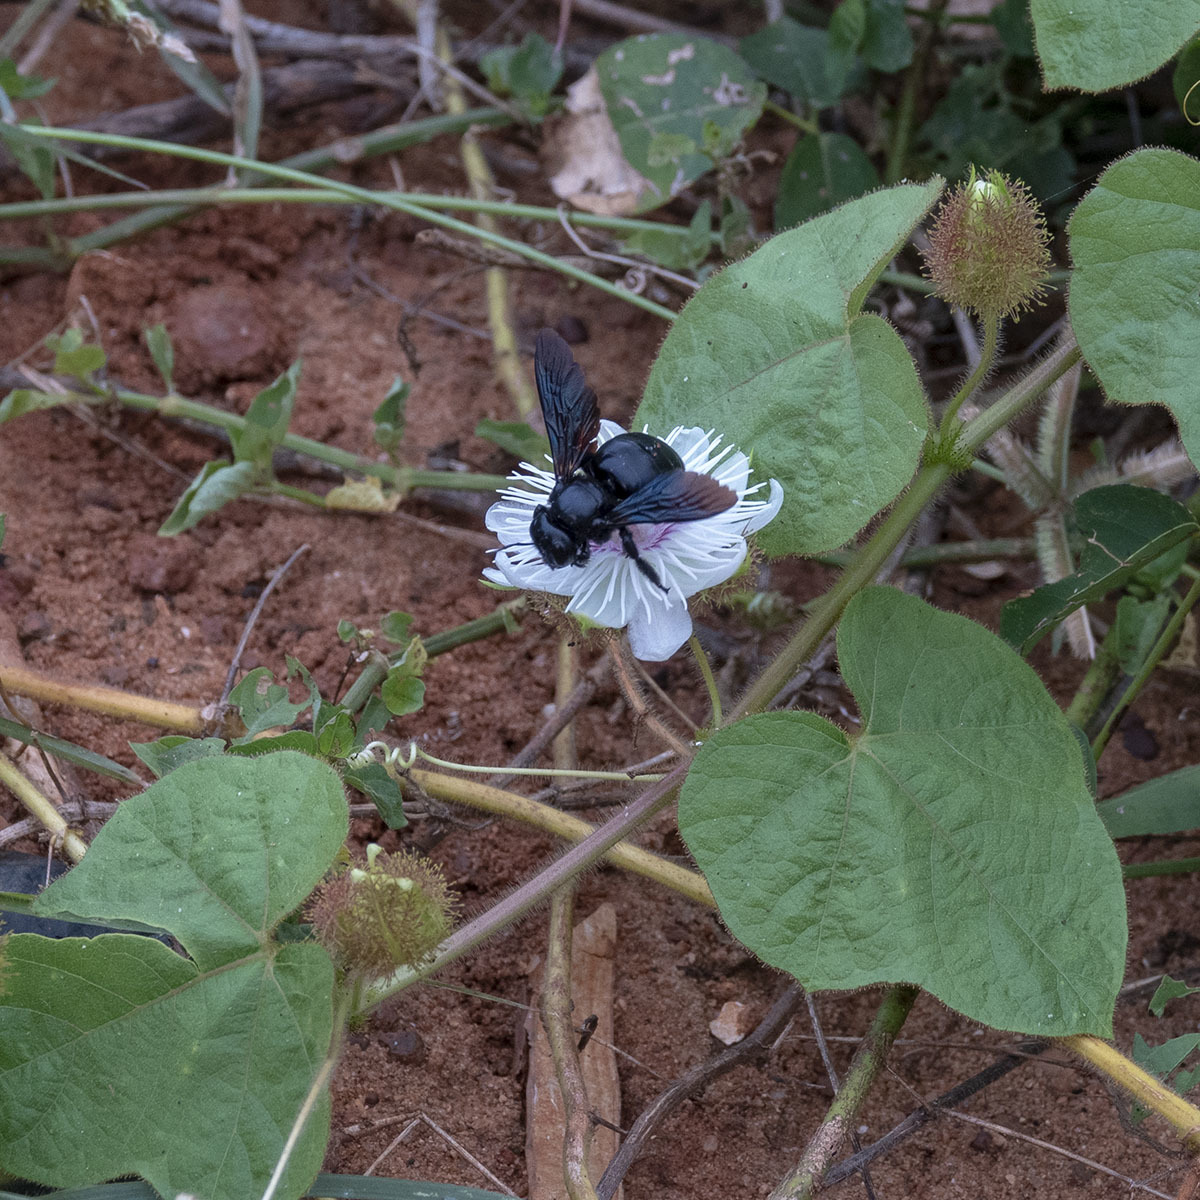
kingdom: Animalia
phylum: Arthropoda
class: Insecta
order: Hymenoptera
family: Apidae
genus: Xylocopa
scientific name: Xylocopa fenestrata
